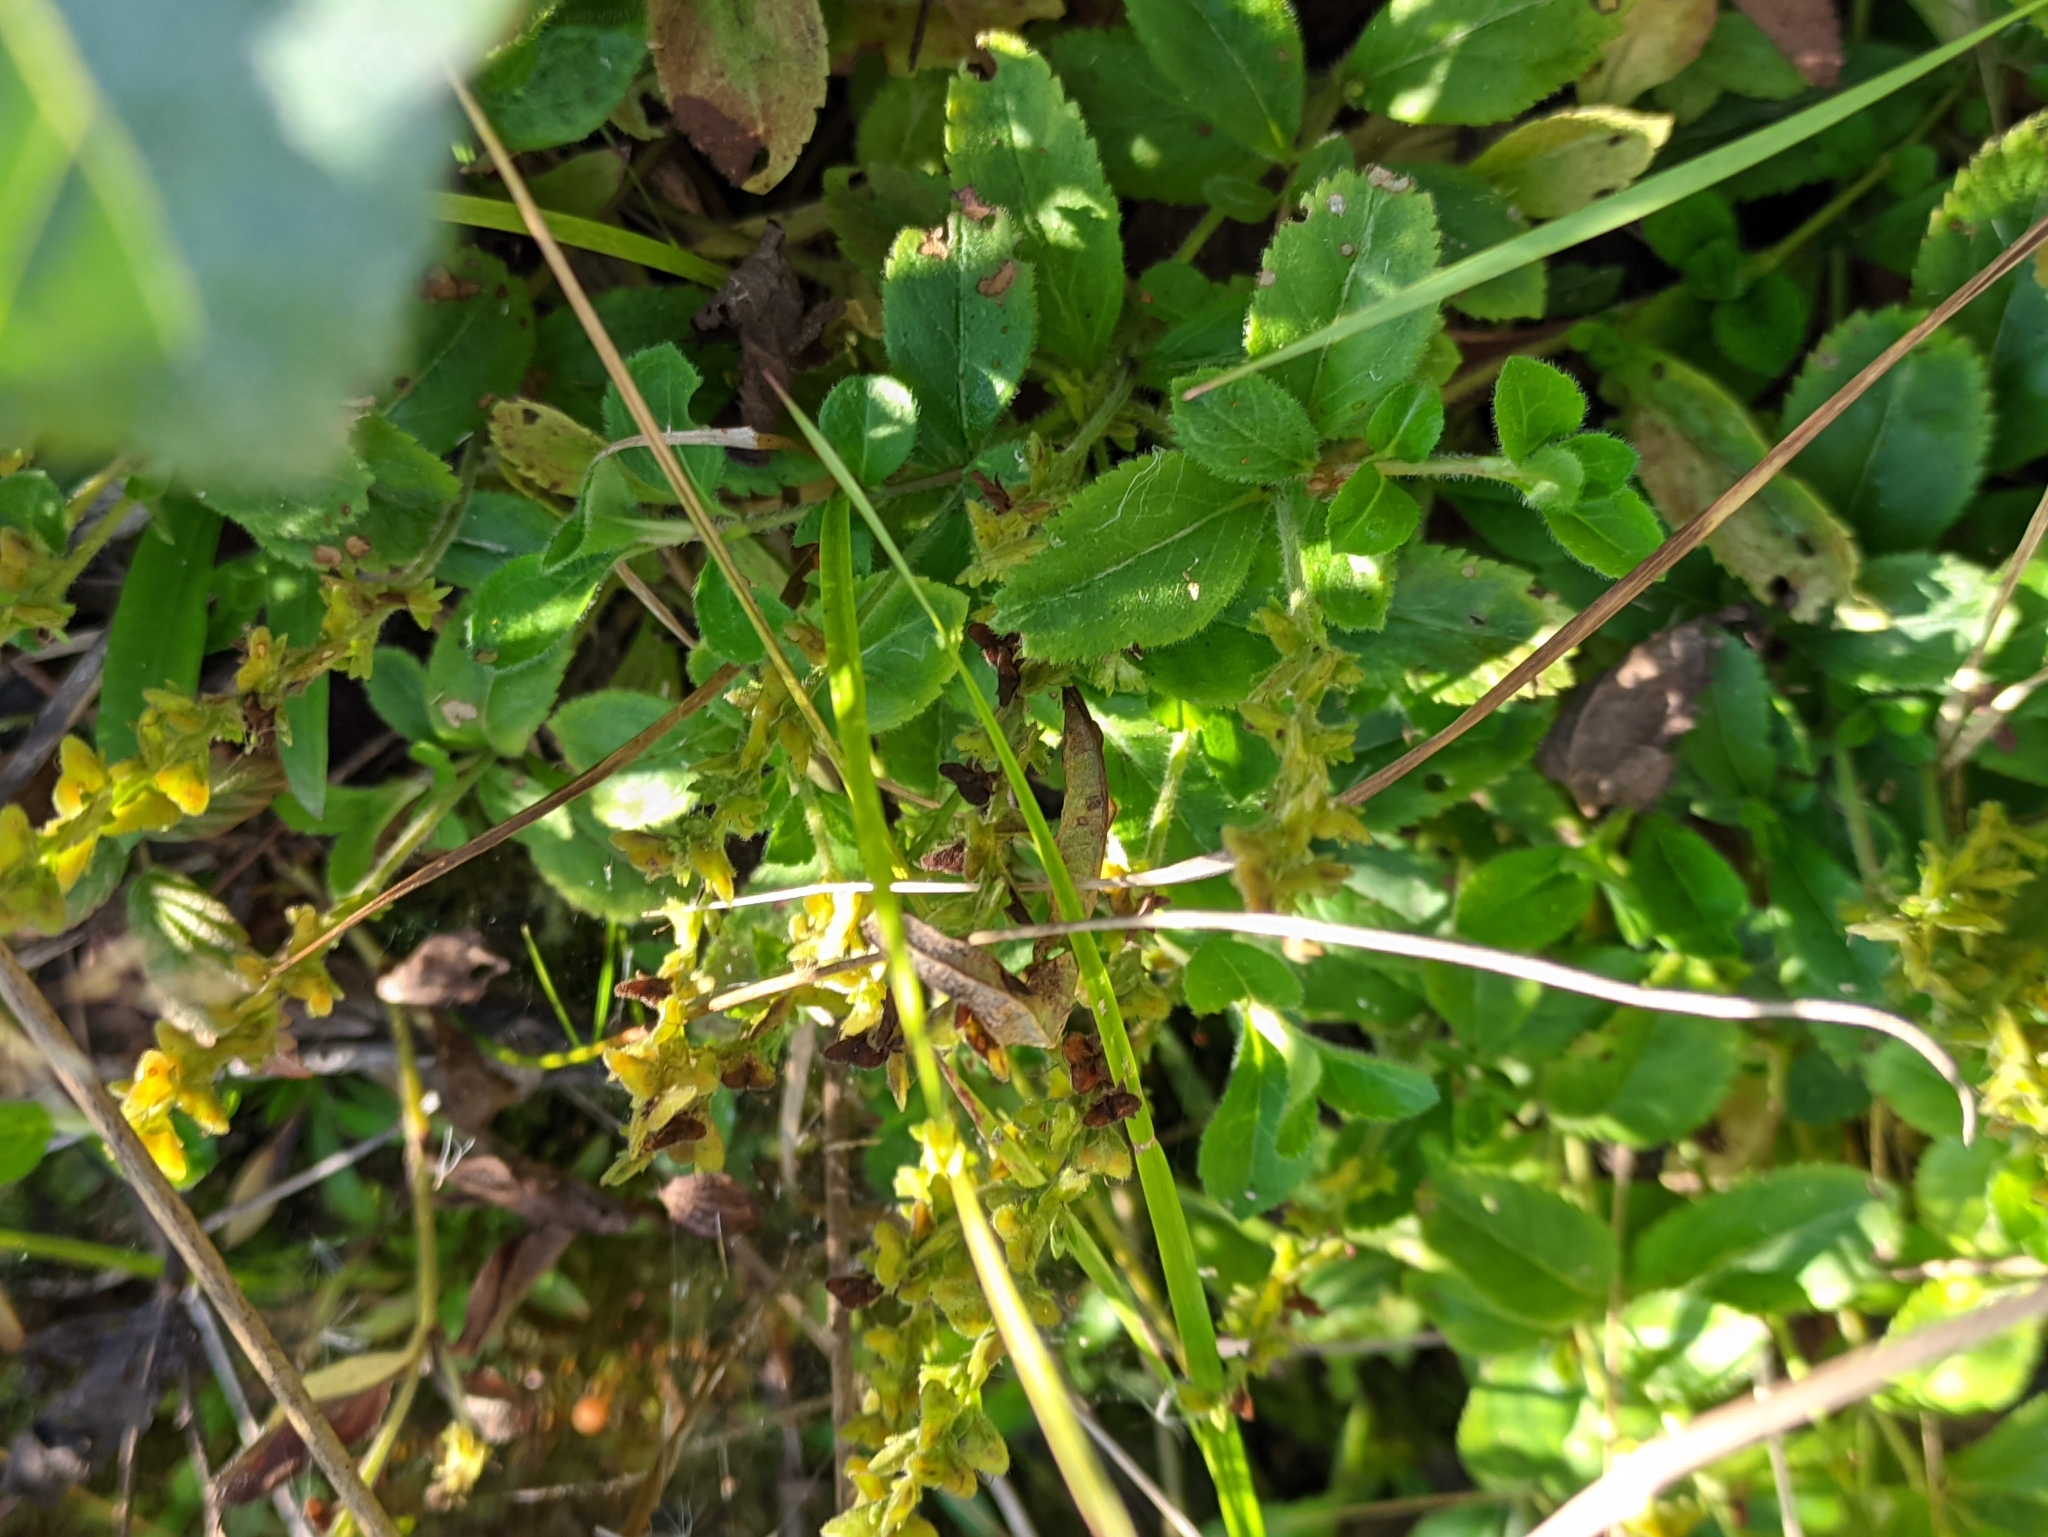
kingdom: Plantae
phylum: Tracheophyta
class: Magnoliopsida
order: Lamiales
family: Plantaginaceae
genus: Veronica
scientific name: Veronica officinalis
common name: Common speedwell
